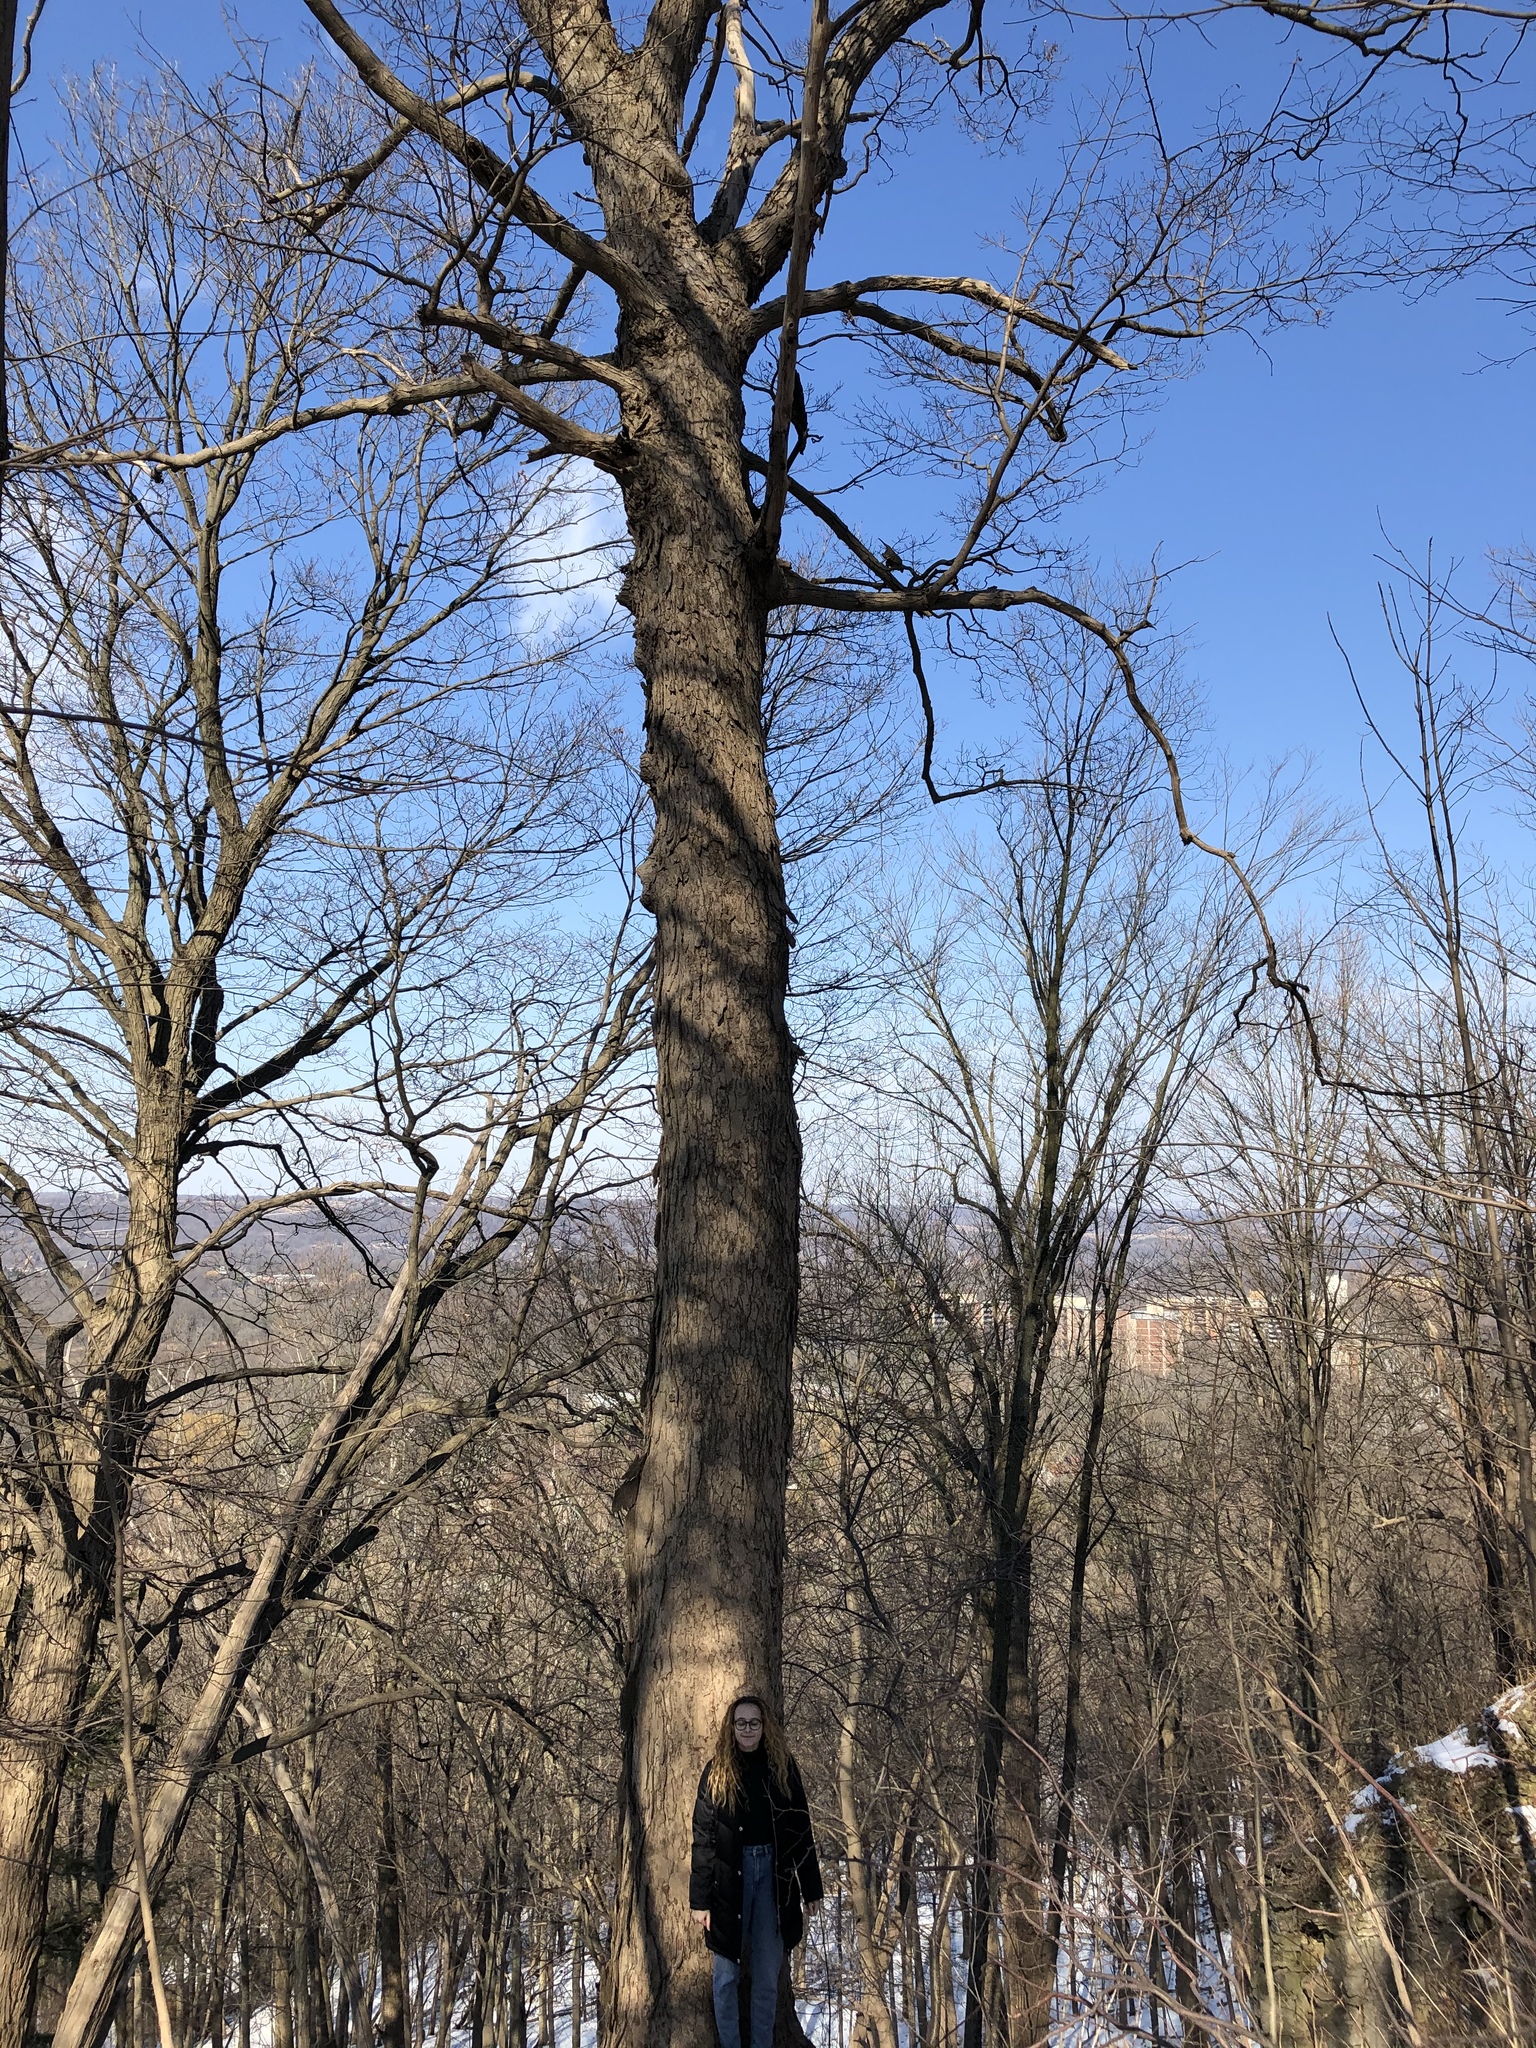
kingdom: Plantae
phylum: Tracheophyta
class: Magnoliopsida
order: Sapindales
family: Sapindaceae
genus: Acer
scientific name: Acer saccharum
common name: Sugar maple
